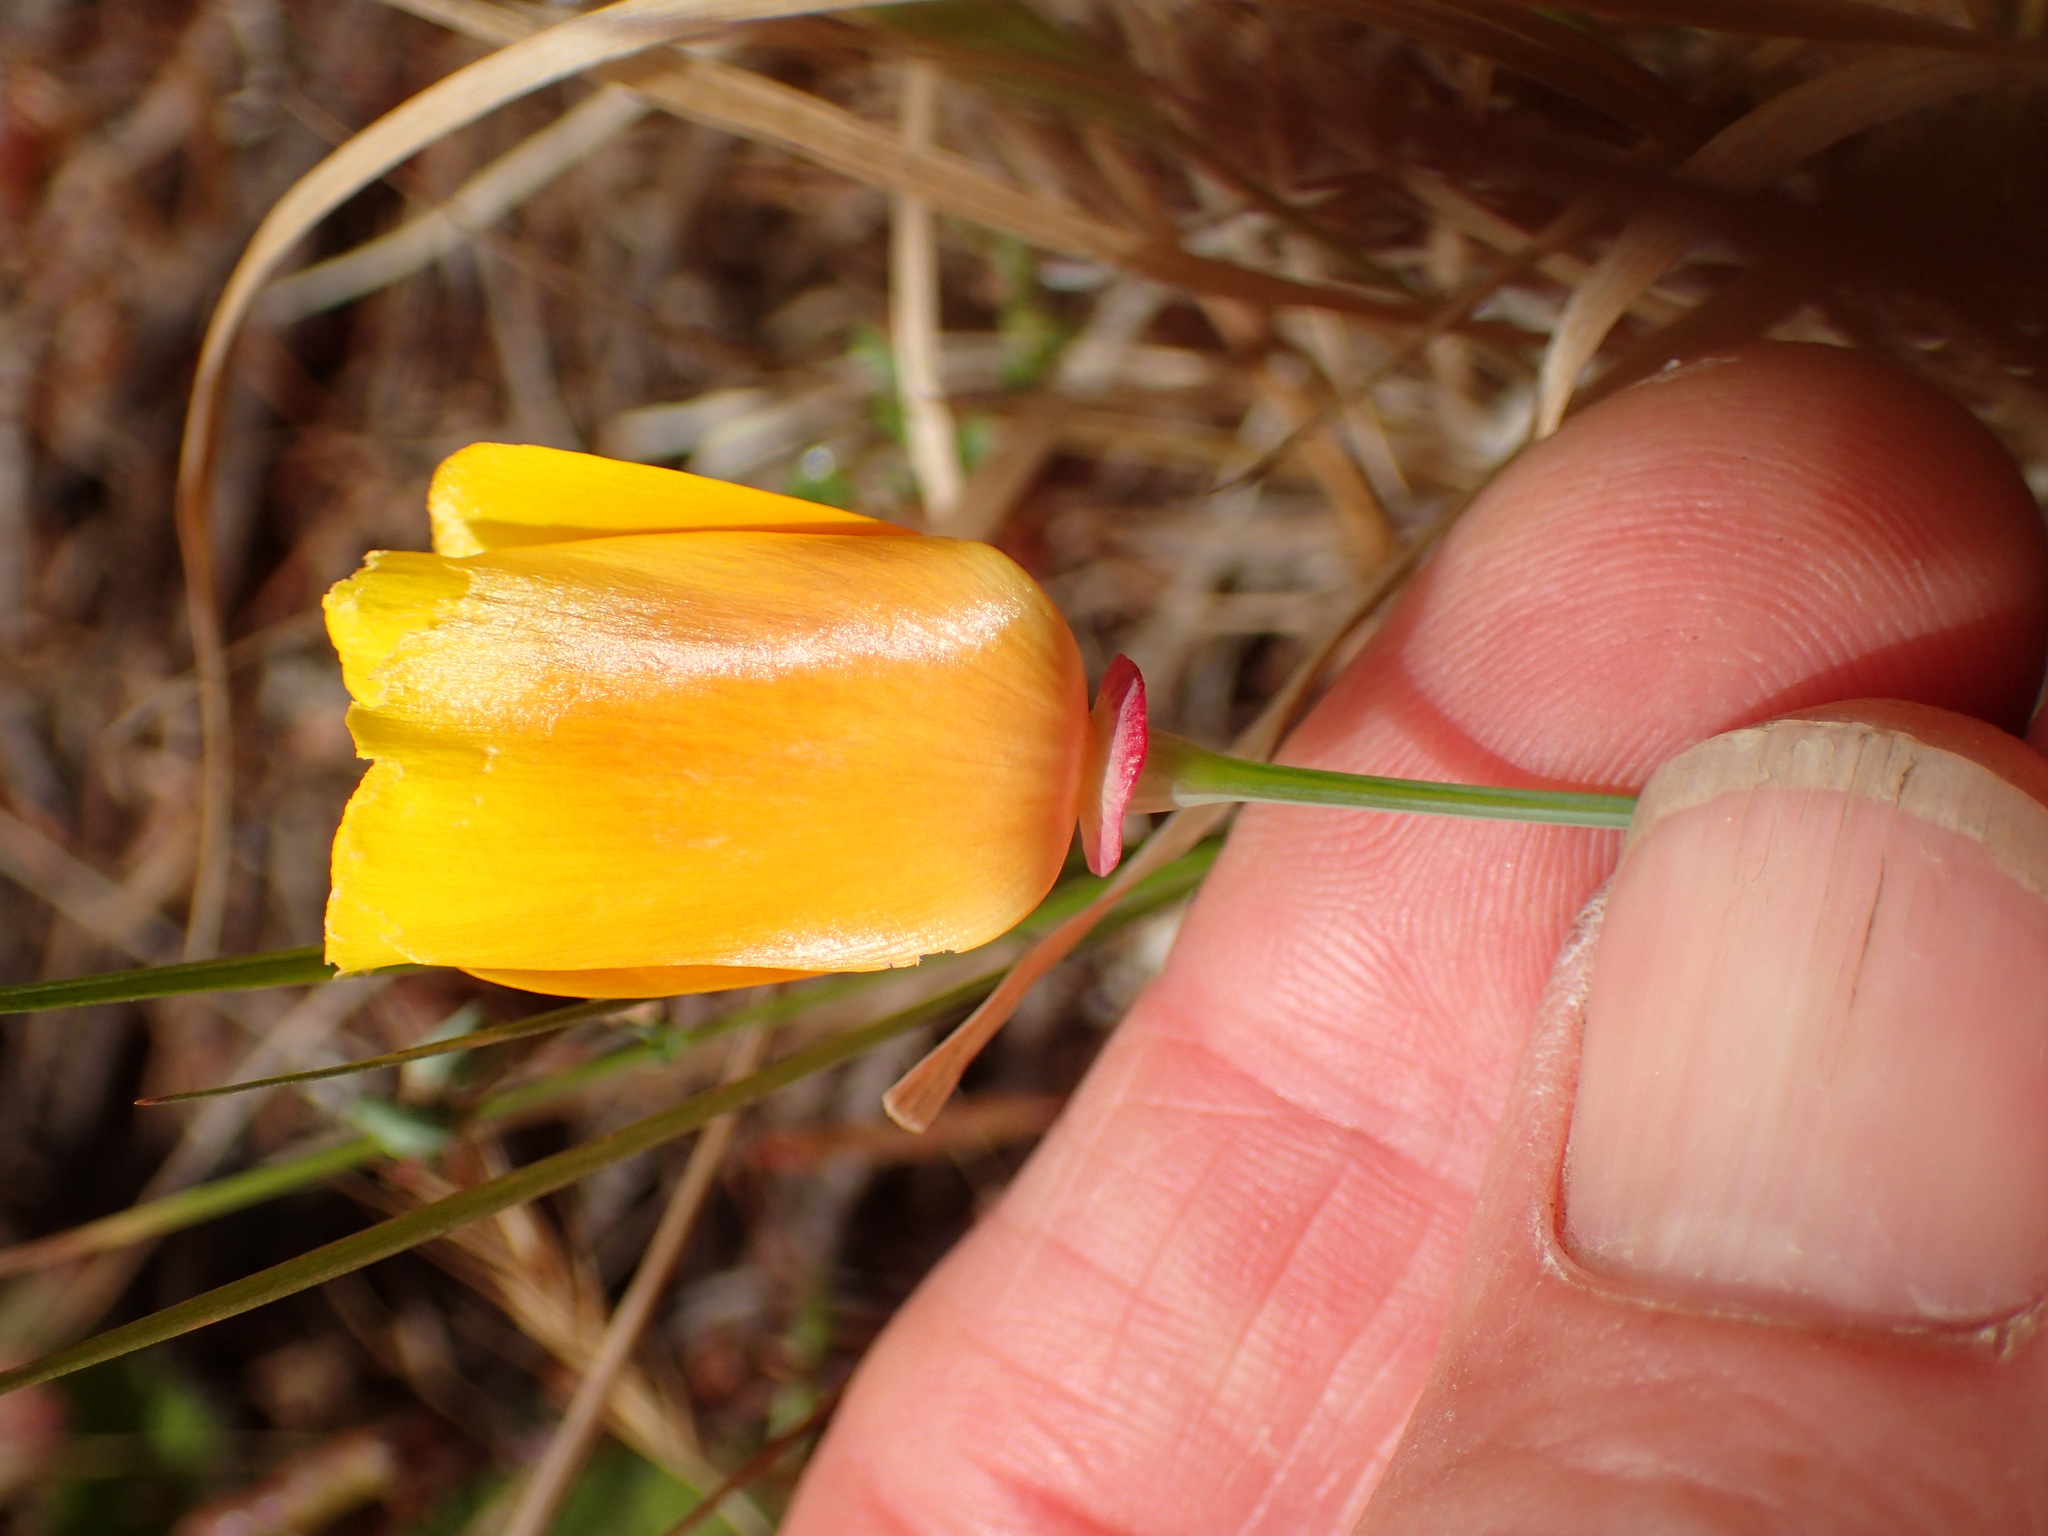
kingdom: Plantae
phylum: Tracheophyta
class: Magnoliopsida
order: Ranunculales
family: Papaveraceae
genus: Eschscholzia
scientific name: Eschscholzia californica
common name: California poppy
